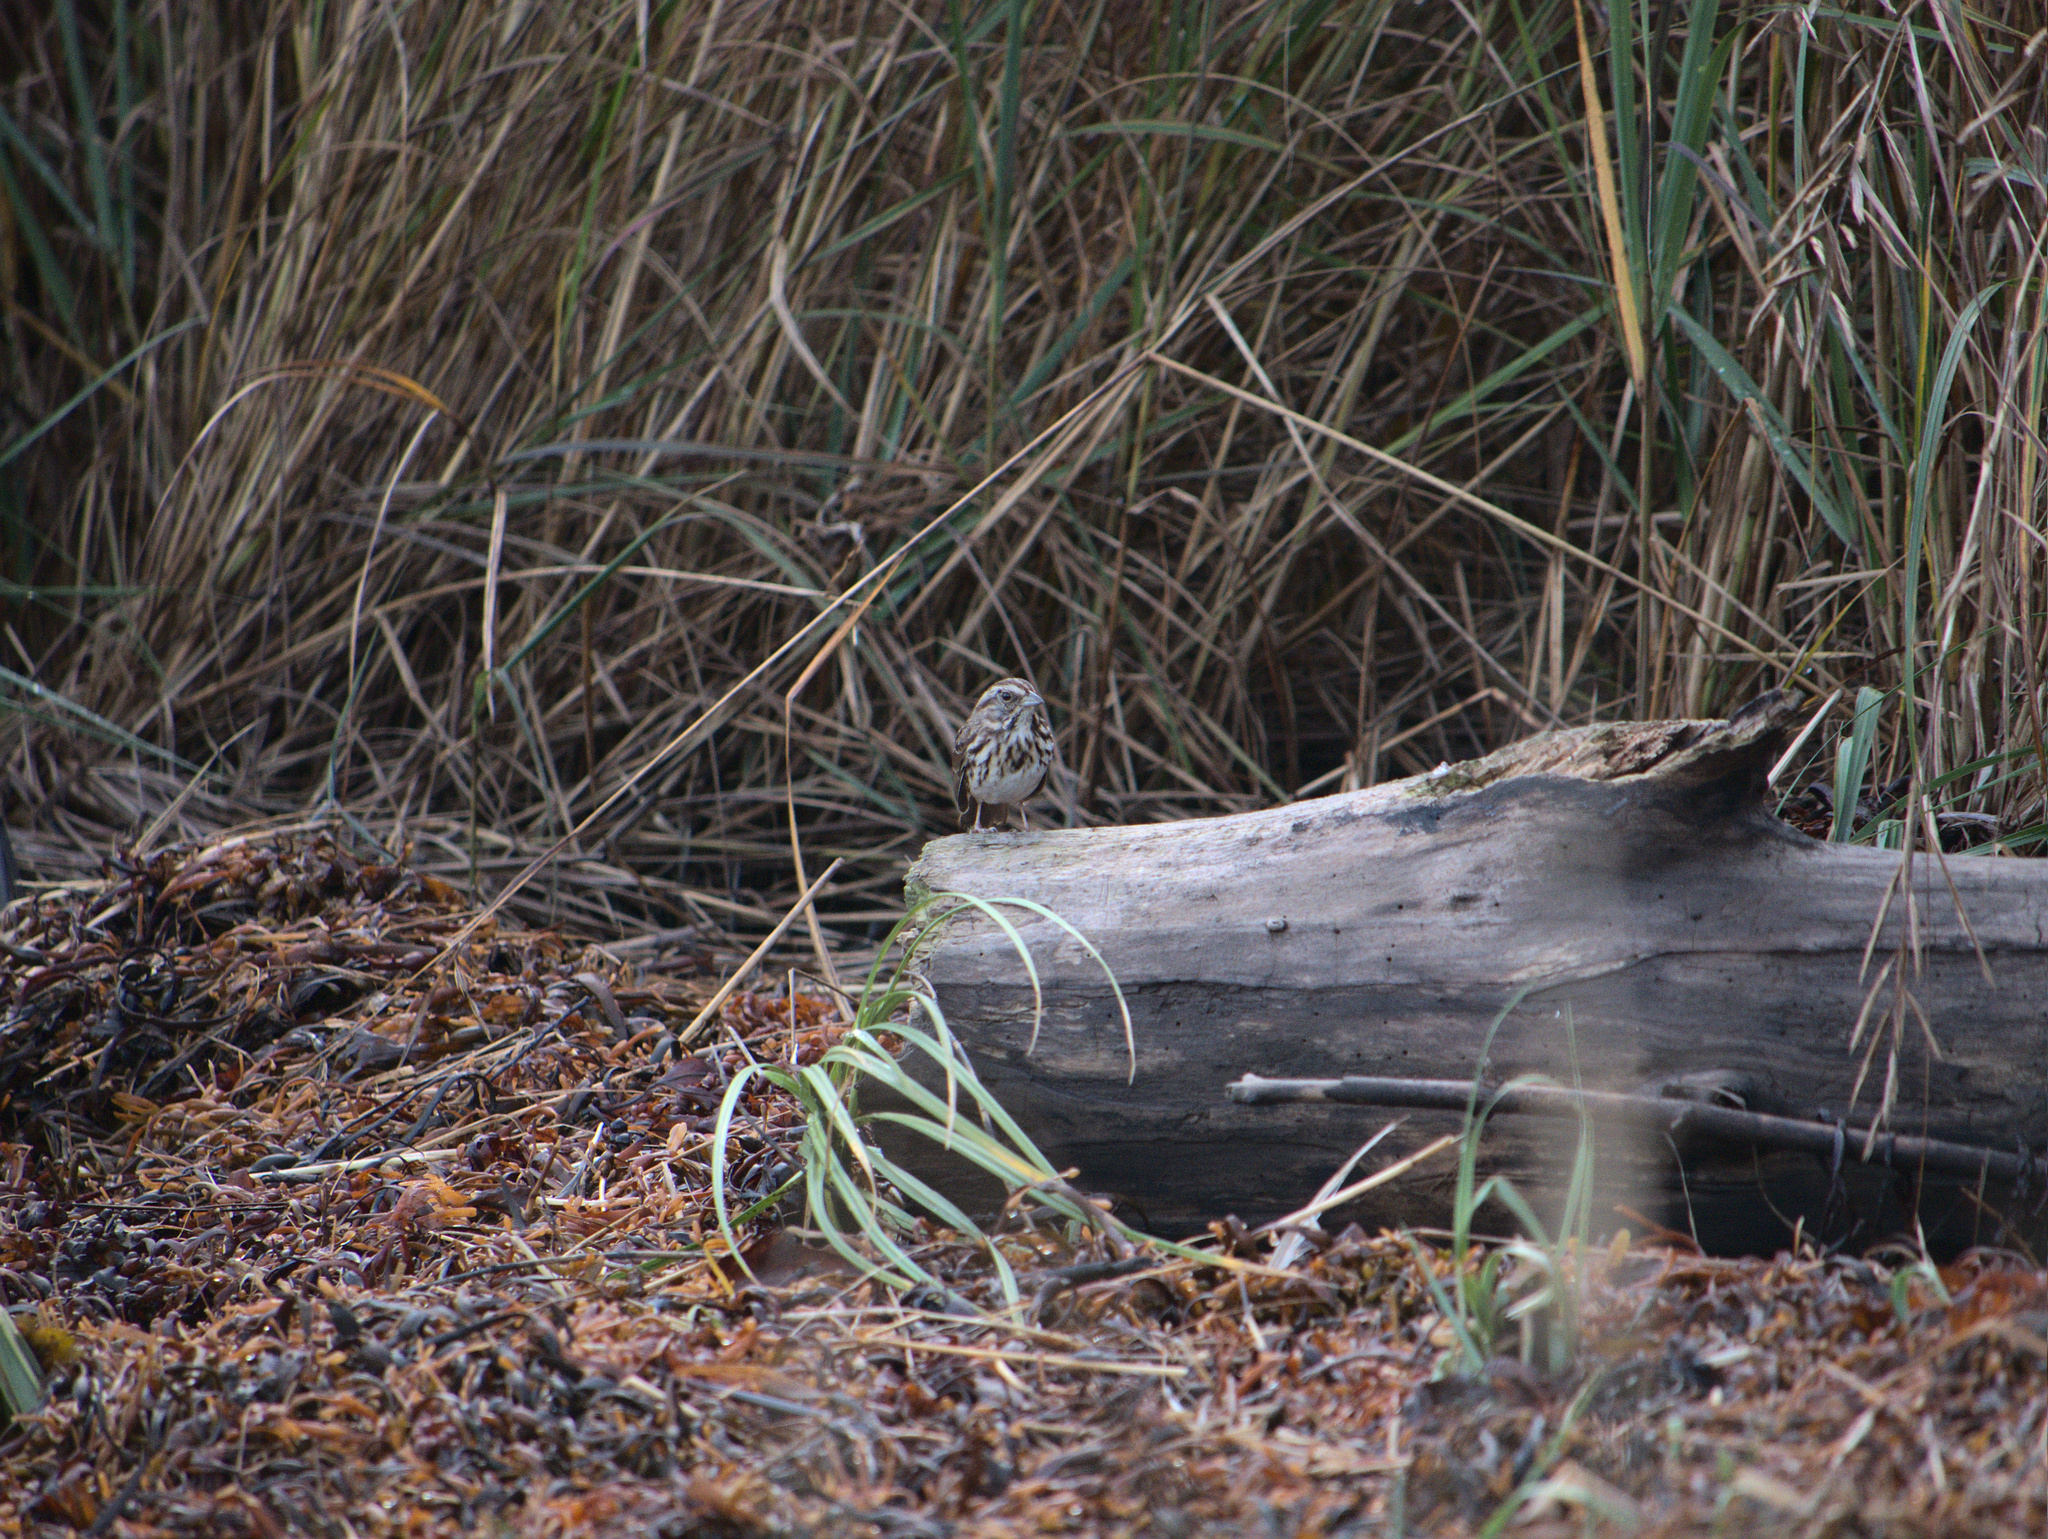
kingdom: Animalia
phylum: Chordata
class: Aves
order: Passeriformes
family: Passerellidae
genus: Melospiza
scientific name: Melospiza melodia
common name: Song sparrow
